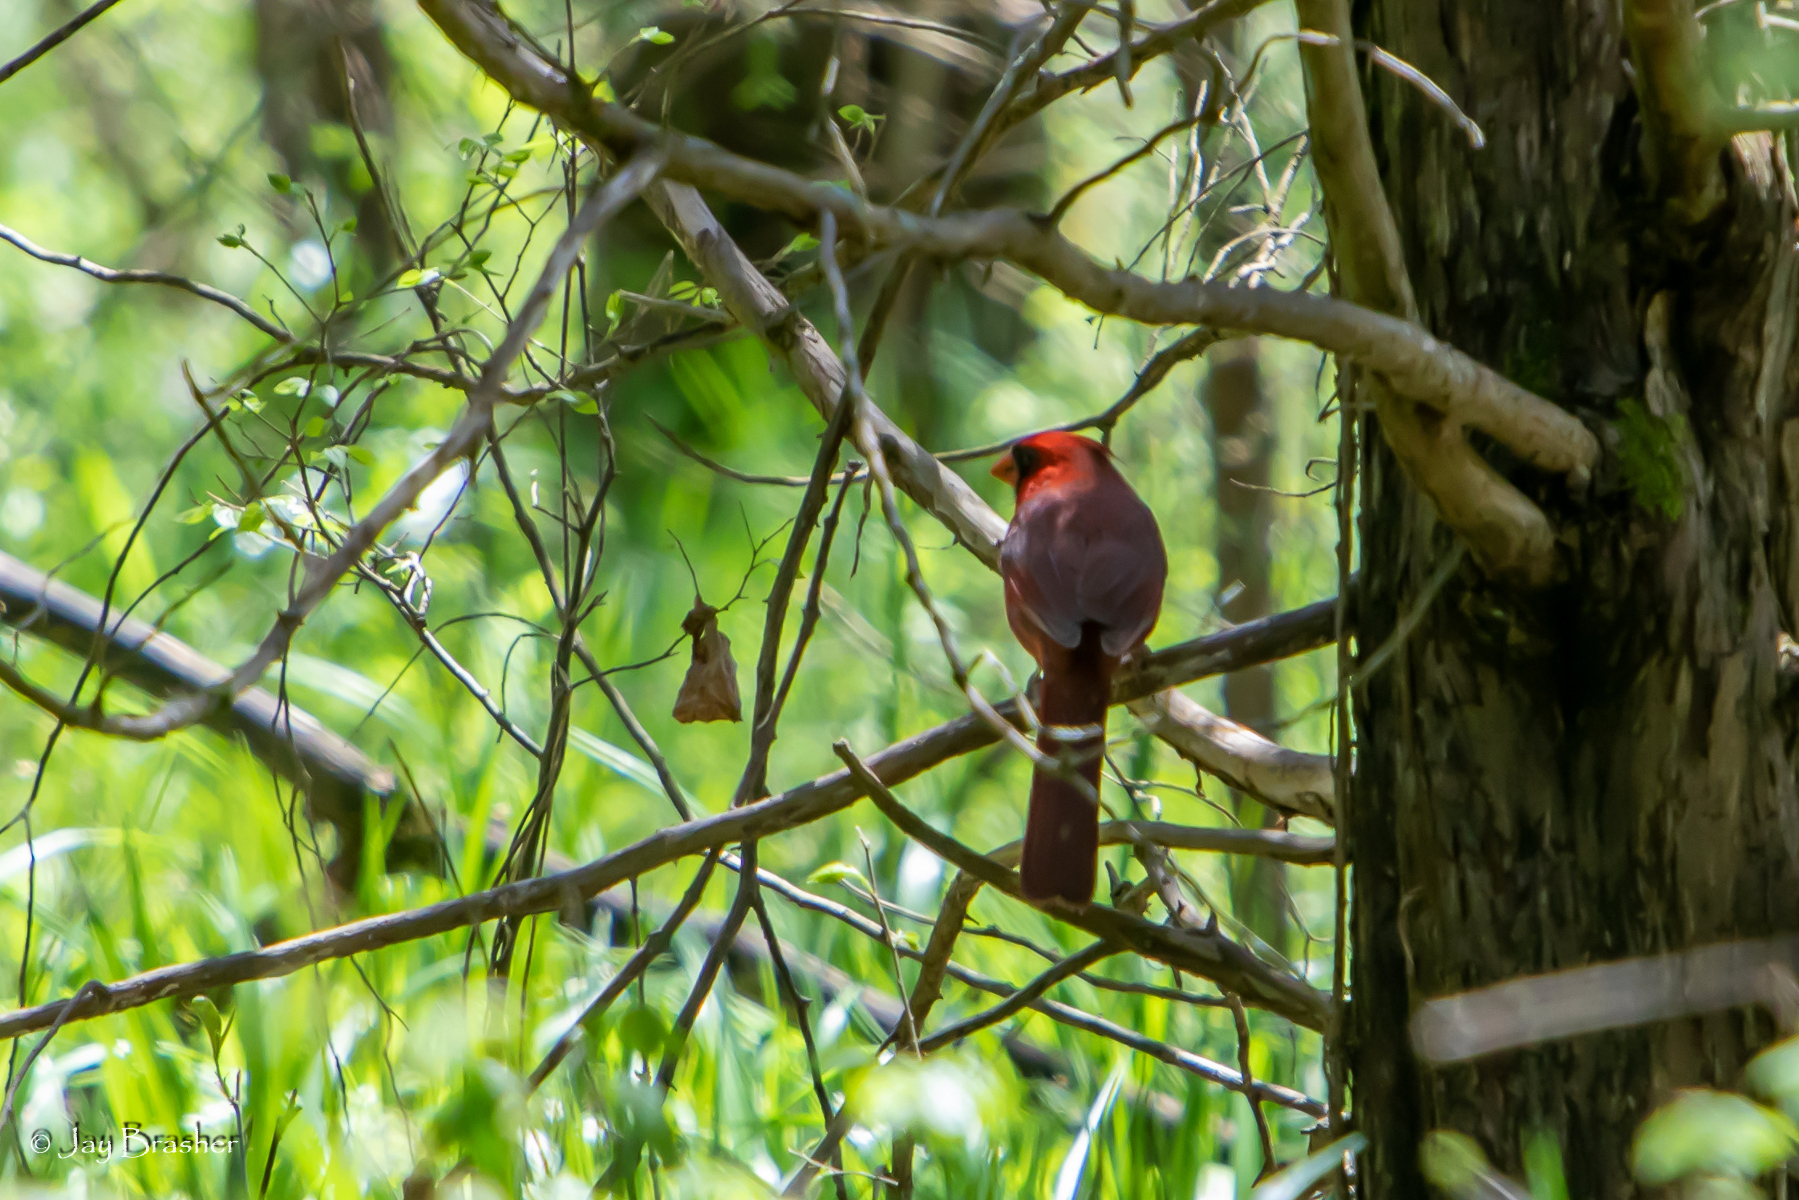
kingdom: Animalia
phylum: Chordata
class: Aves
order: Passeriformes
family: Cardinalidae
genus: Cardinalis
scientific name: Cardinalis cardinalis
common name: Northern cardinal
